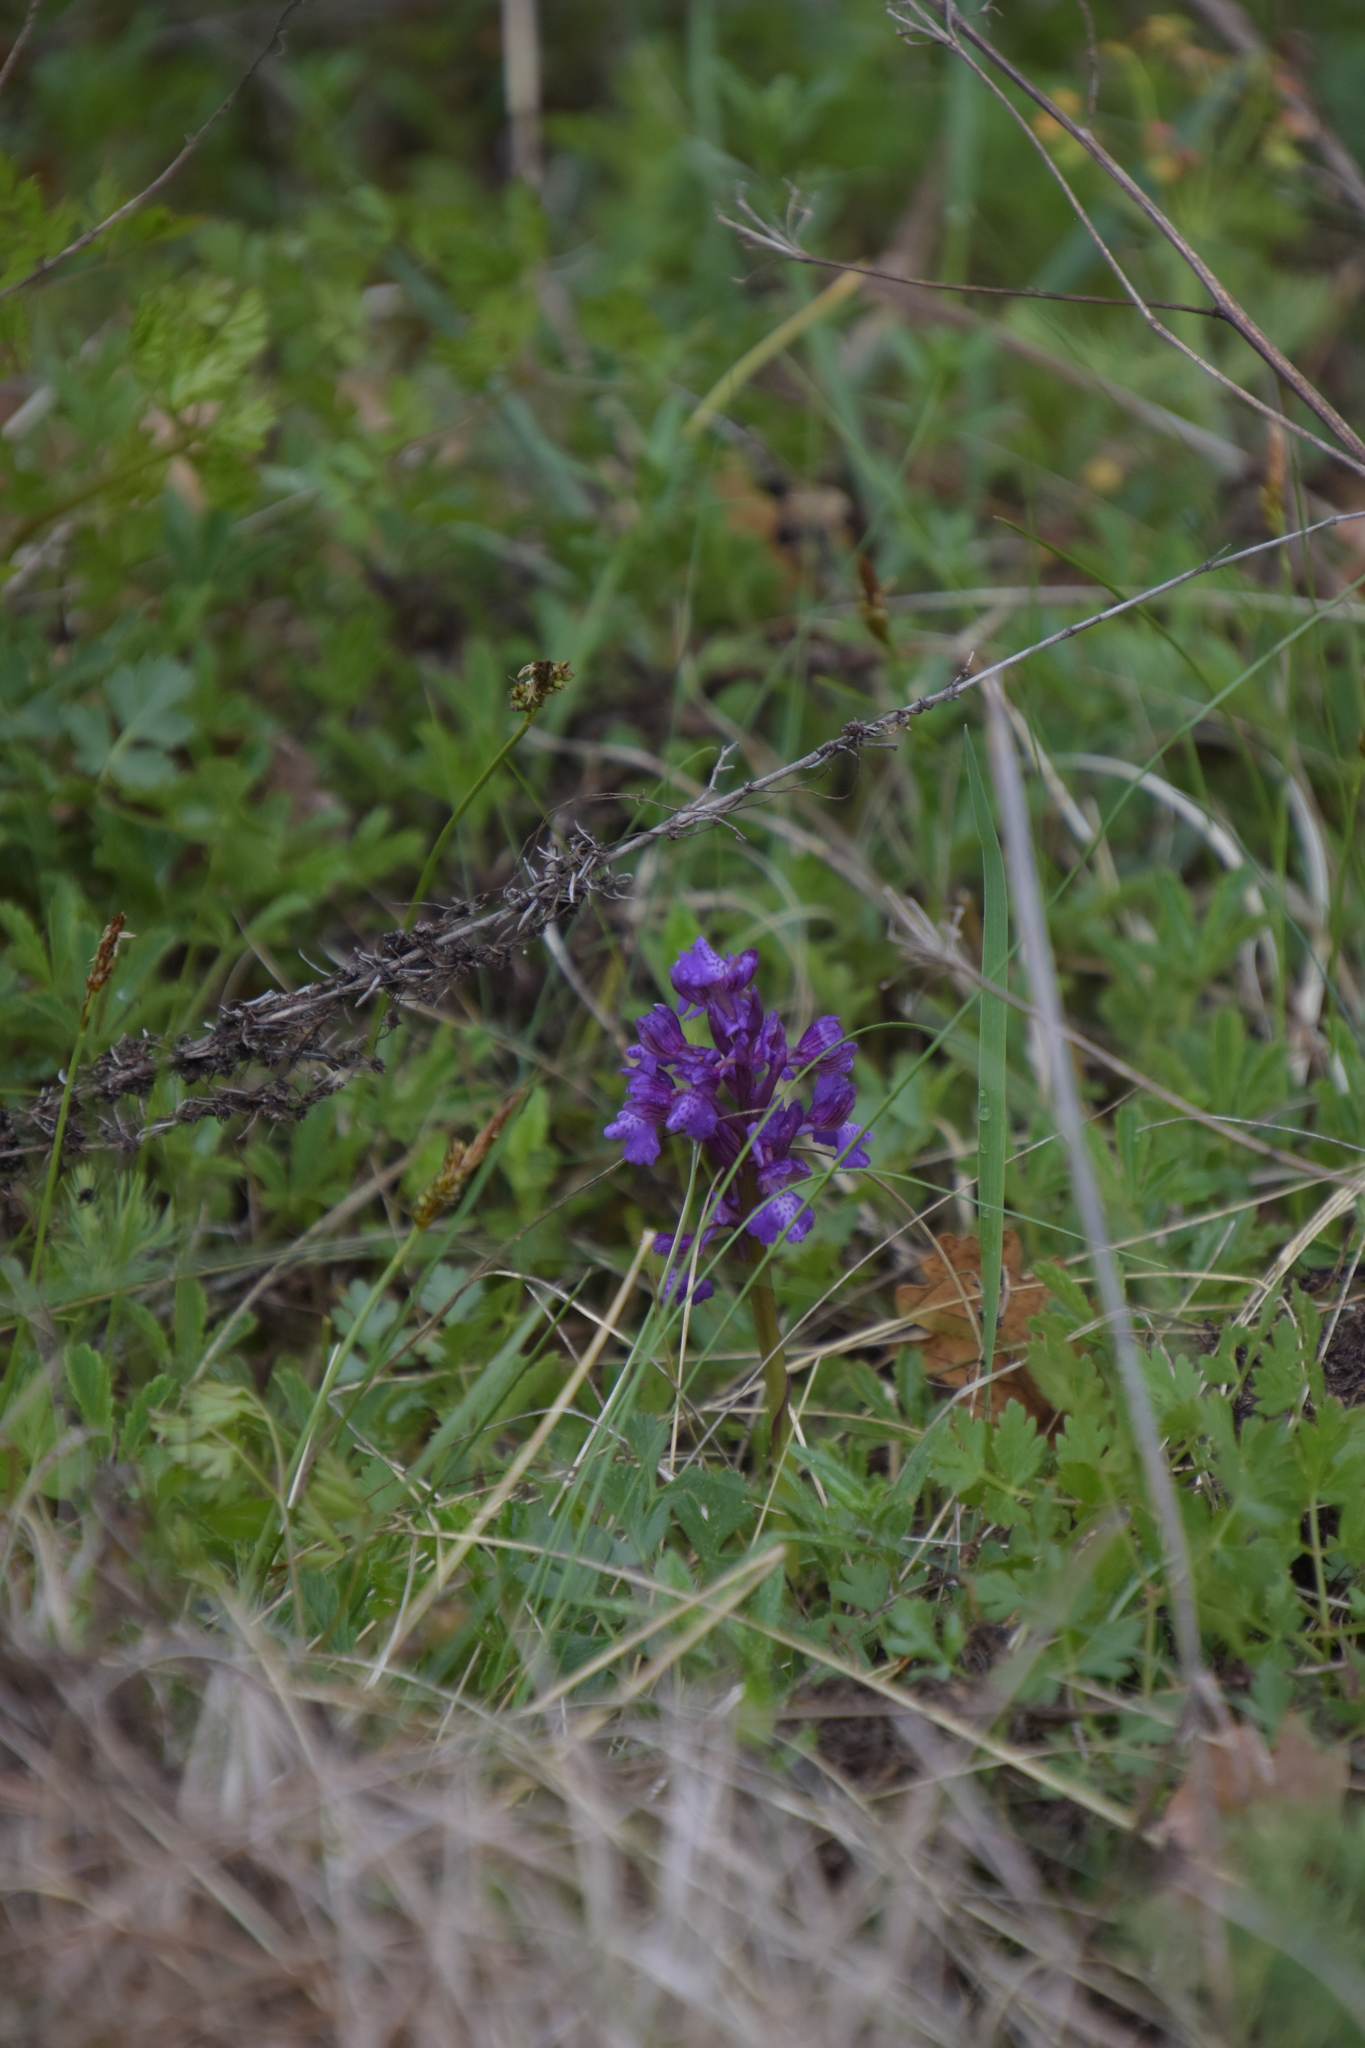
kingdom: Plantae
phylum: Tracheophyta
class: Liliopsida
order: Asparagales
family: Orchidaceae
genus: Anacamptis
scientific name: Anacamptis morio
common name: Green-winged orchid
